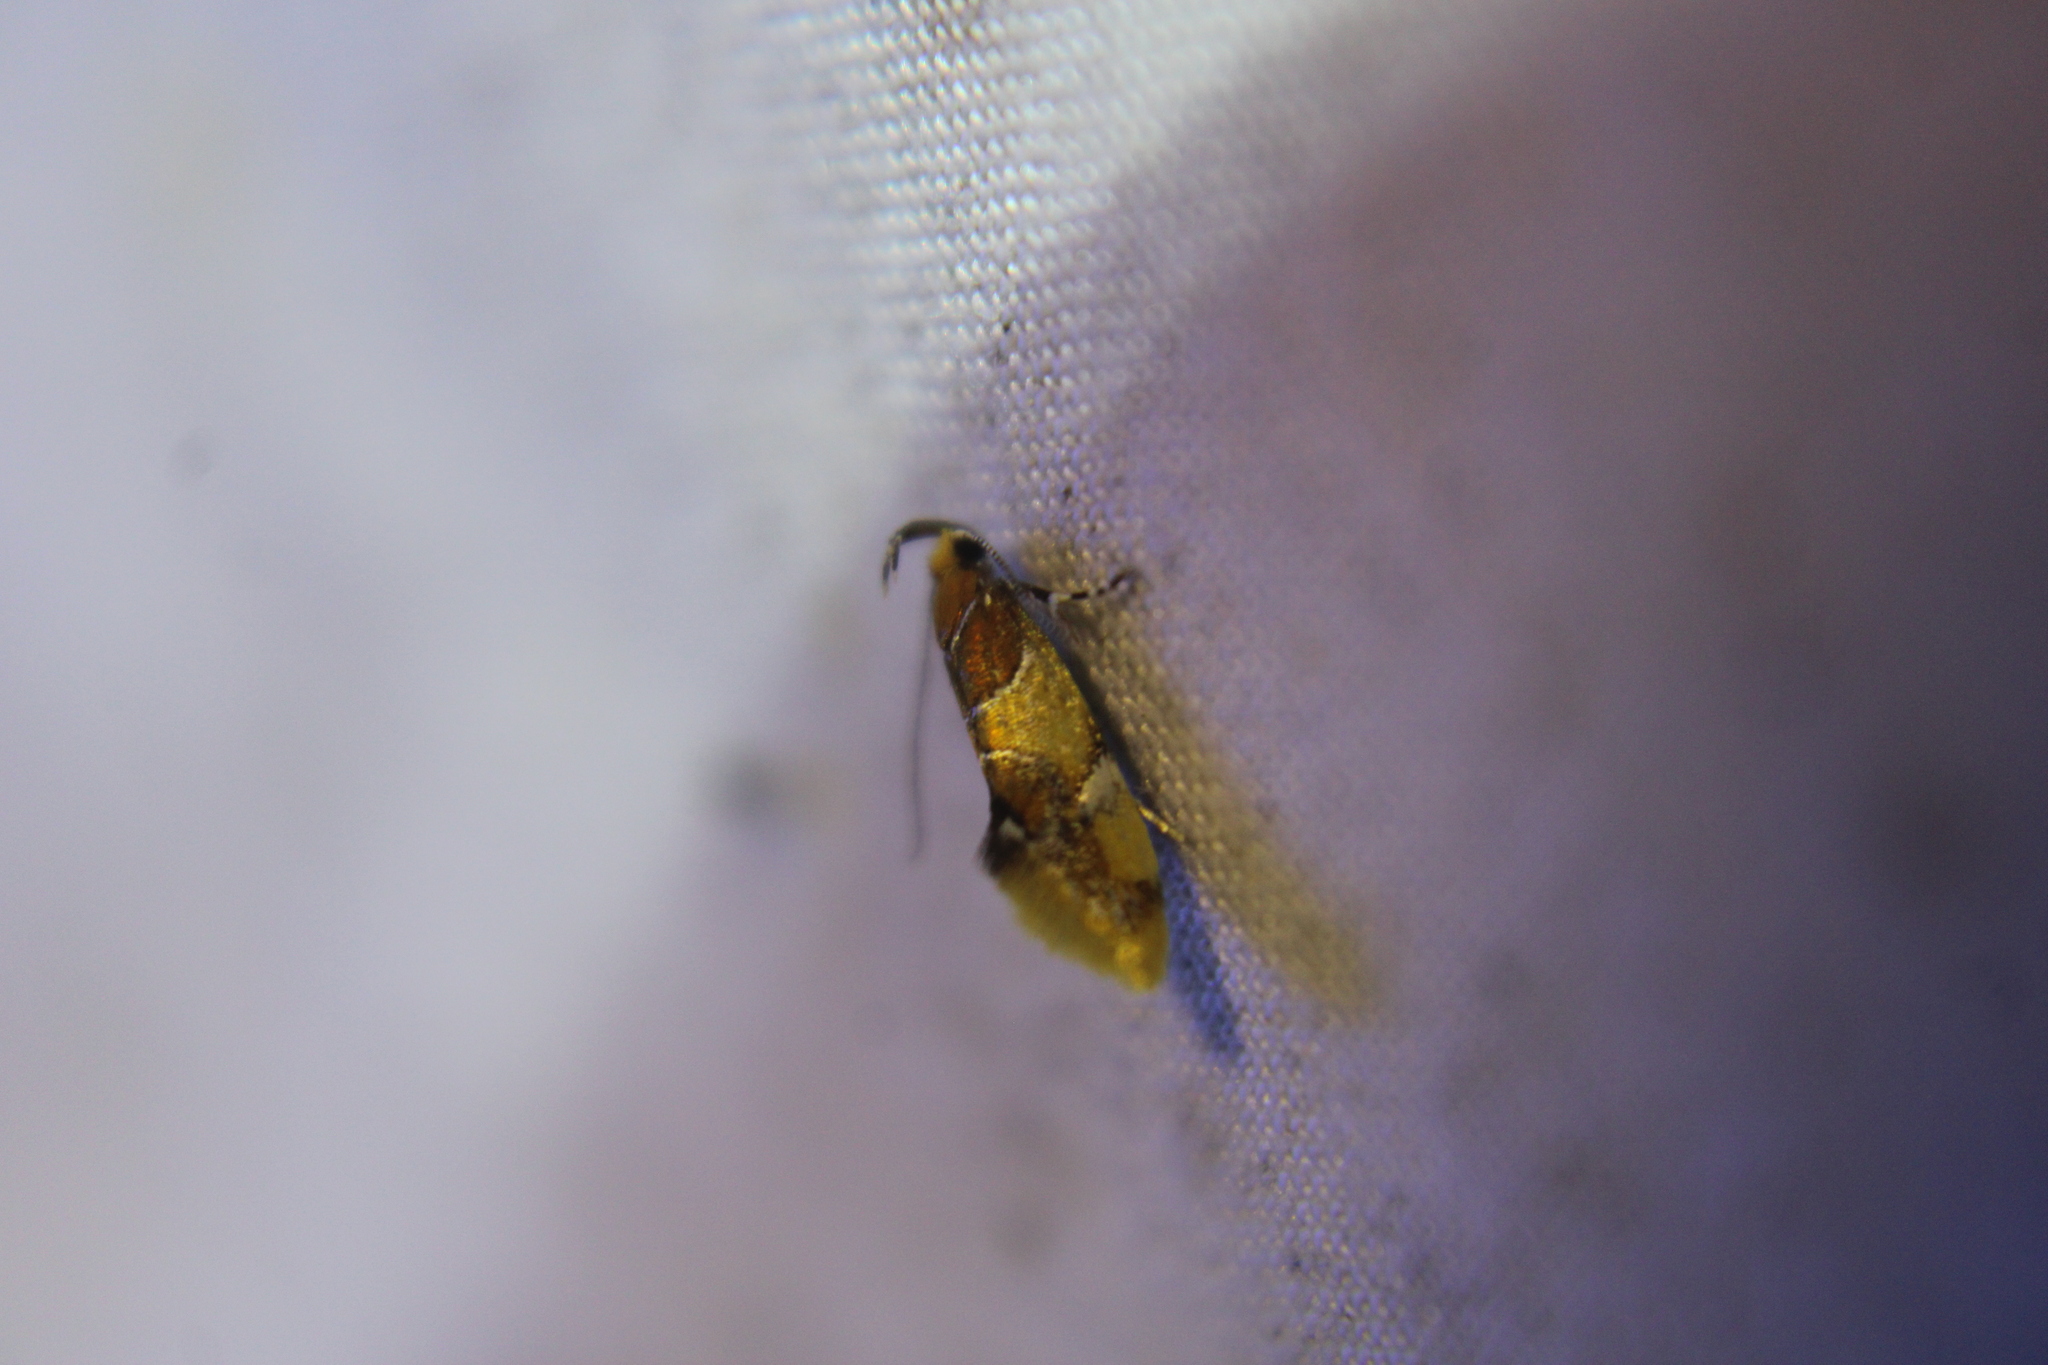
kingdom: Animalia
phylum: Arthropoda
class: Insecta
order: Lepidoptera
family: Oecophoridae
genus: Callima
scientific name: Callima argenticinctella
